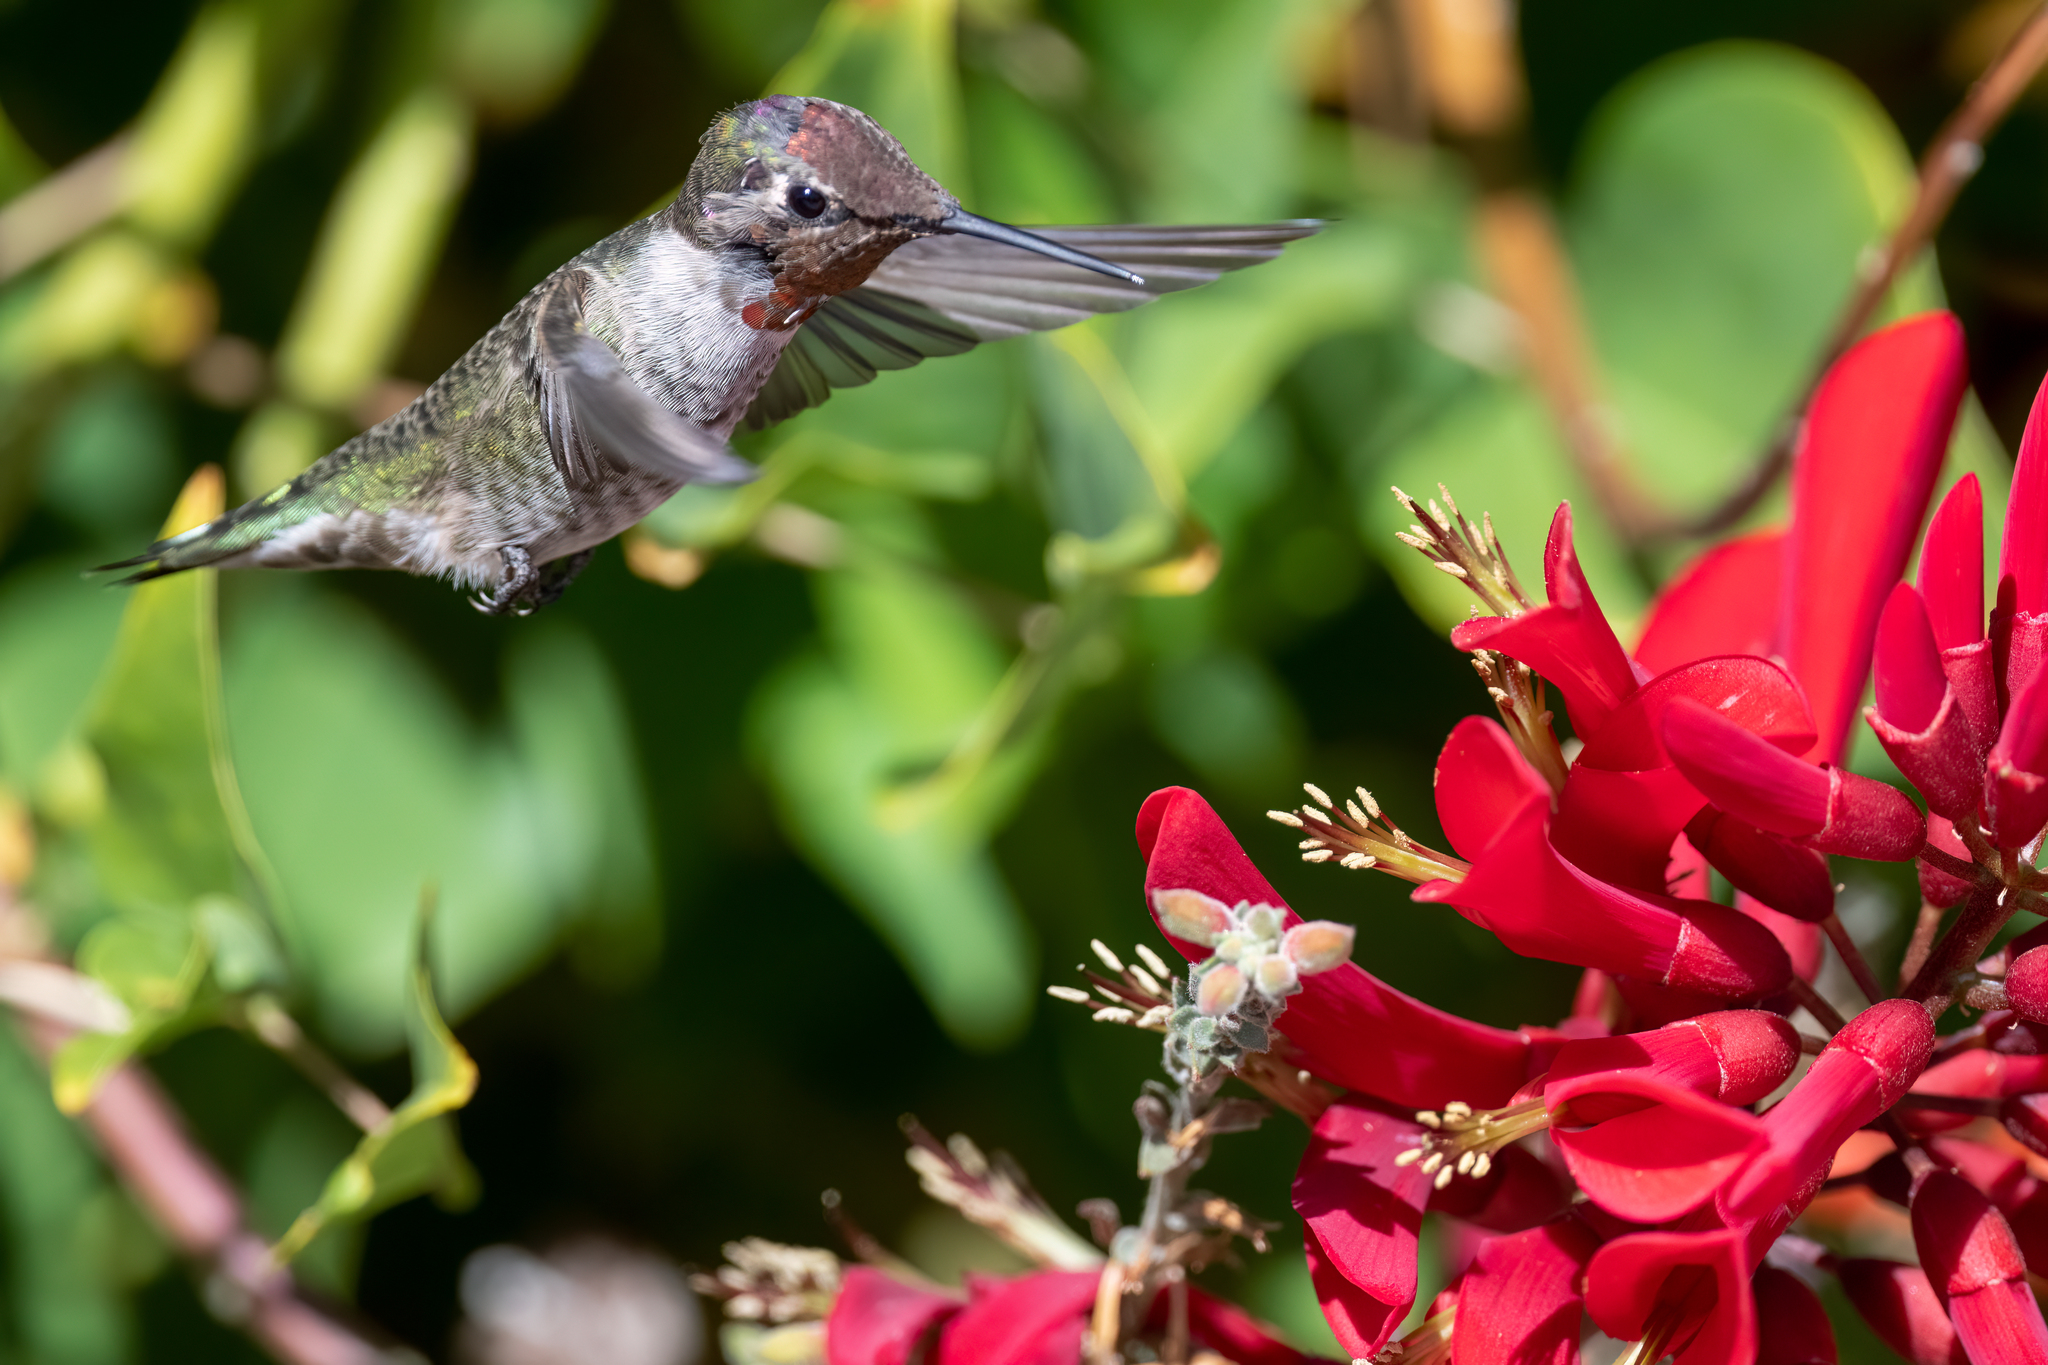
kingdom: Animalia
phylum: Chordata
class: Aves
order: Apodiformes
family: Trochilidae
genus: Calypte
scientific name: Calypte anna
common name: Anna's hummingbird
